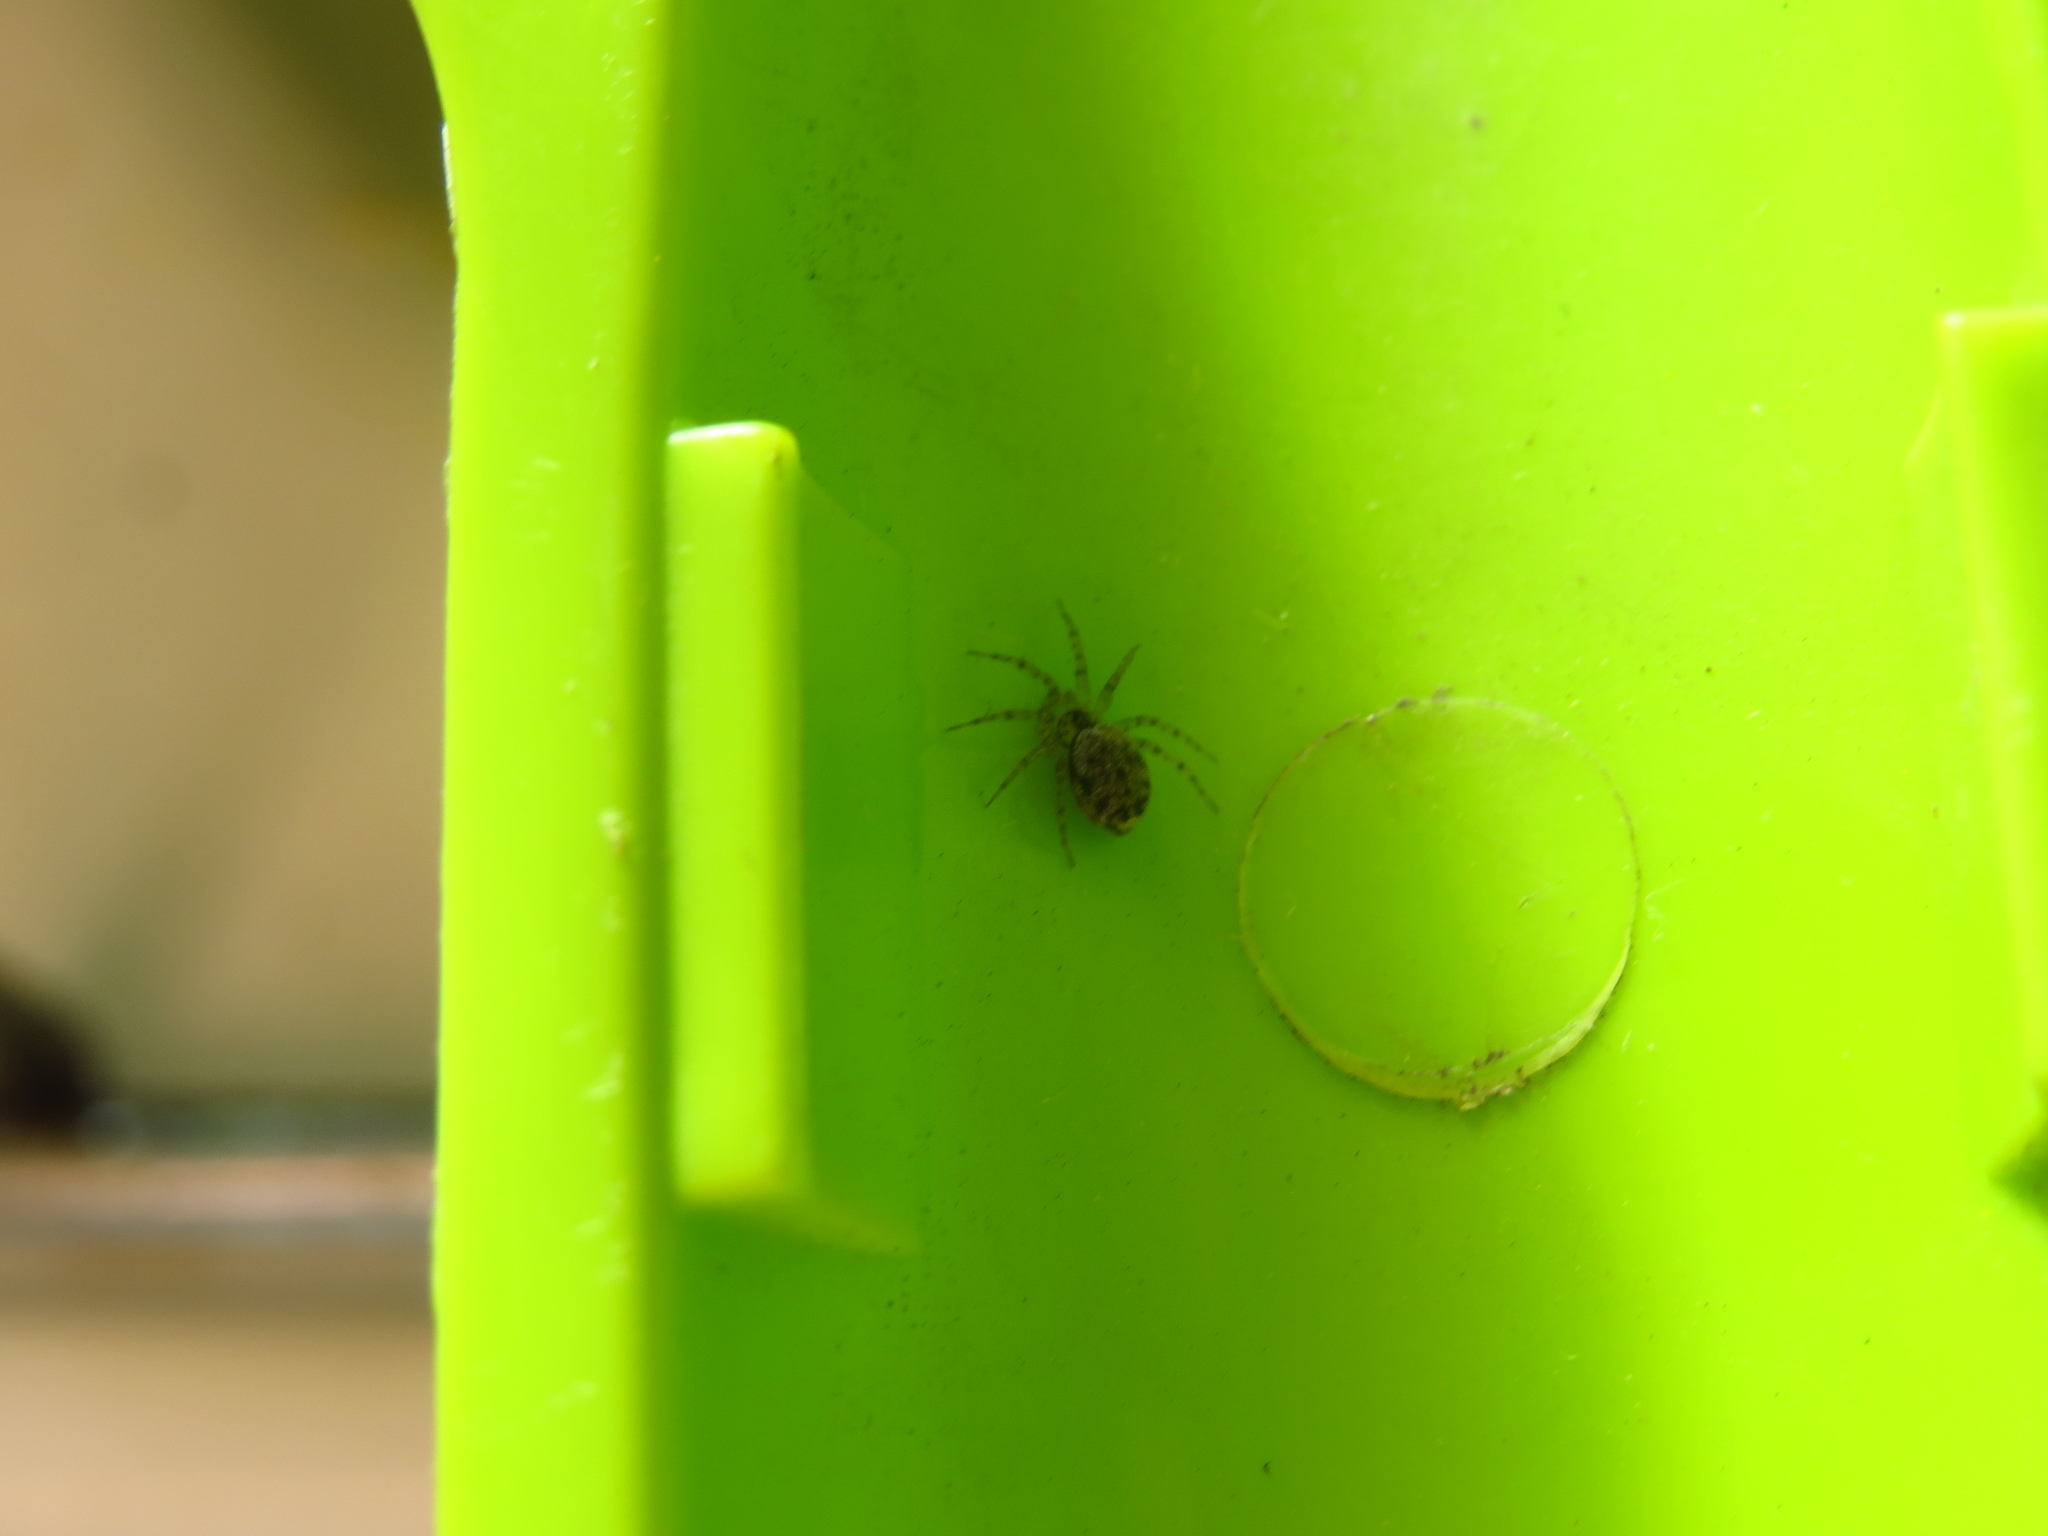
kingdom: Animalia
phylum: Arthropoda
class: Arachnida
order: Araneae
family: Oecobiidae
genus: Oecobius
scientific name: Oecobius navus
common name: Flatmesh weaver
